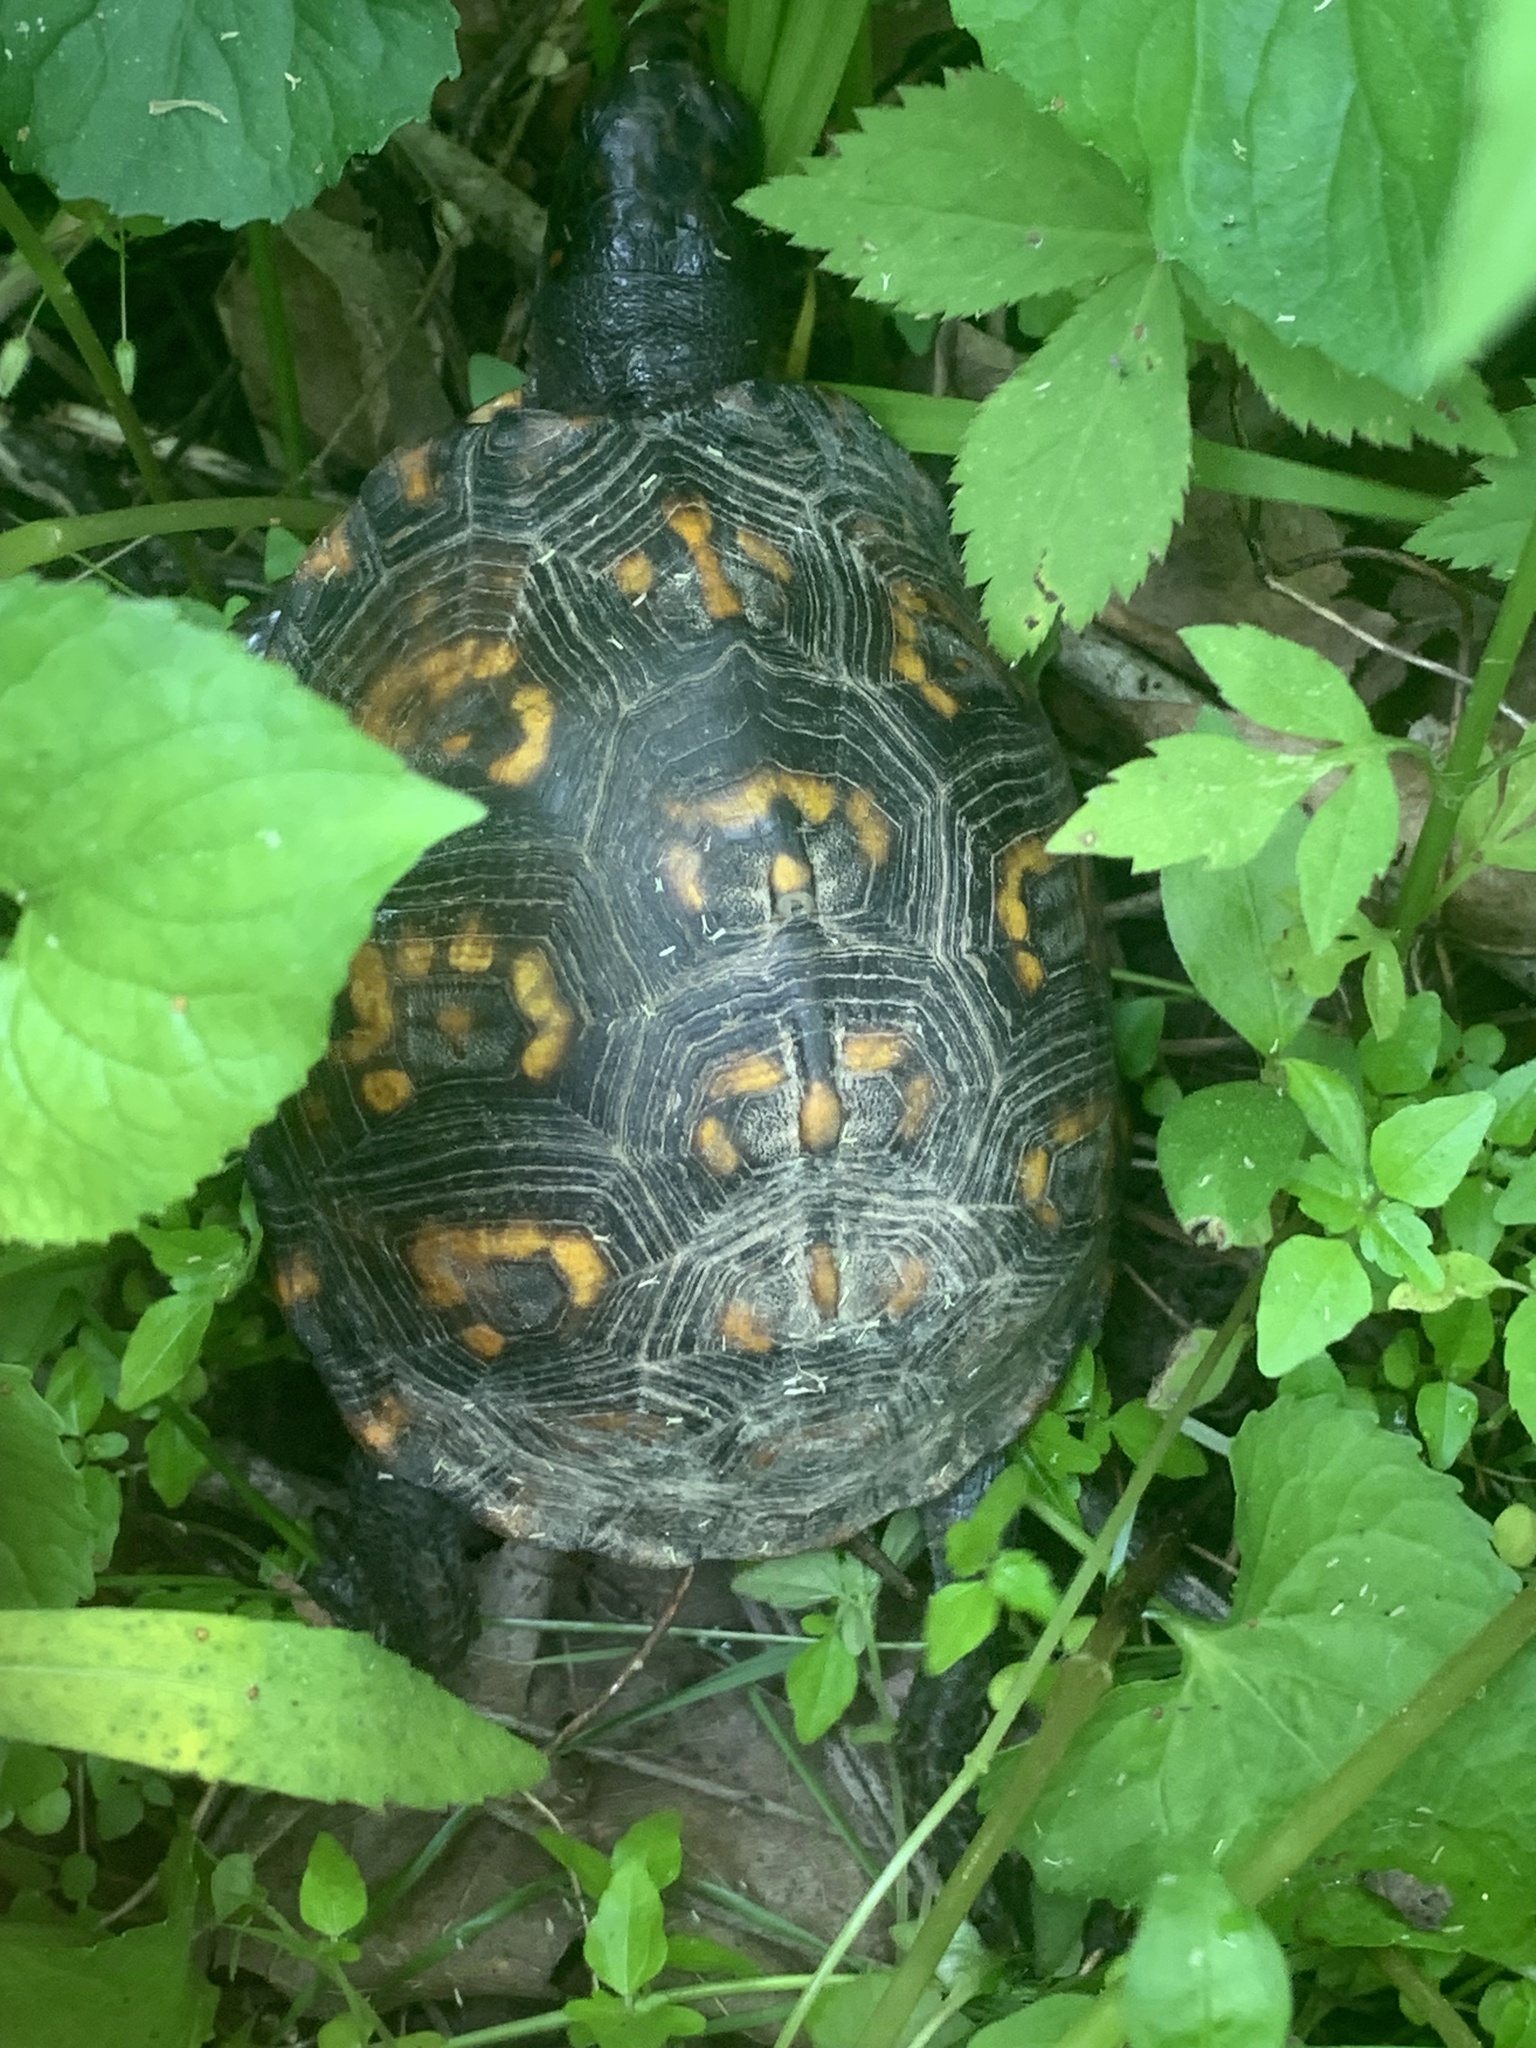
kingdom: Animalia
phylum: Chordata
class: Testudines
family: Emydidae
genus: Terrapene
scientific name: Terrapene carolina
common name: Common box turtle
